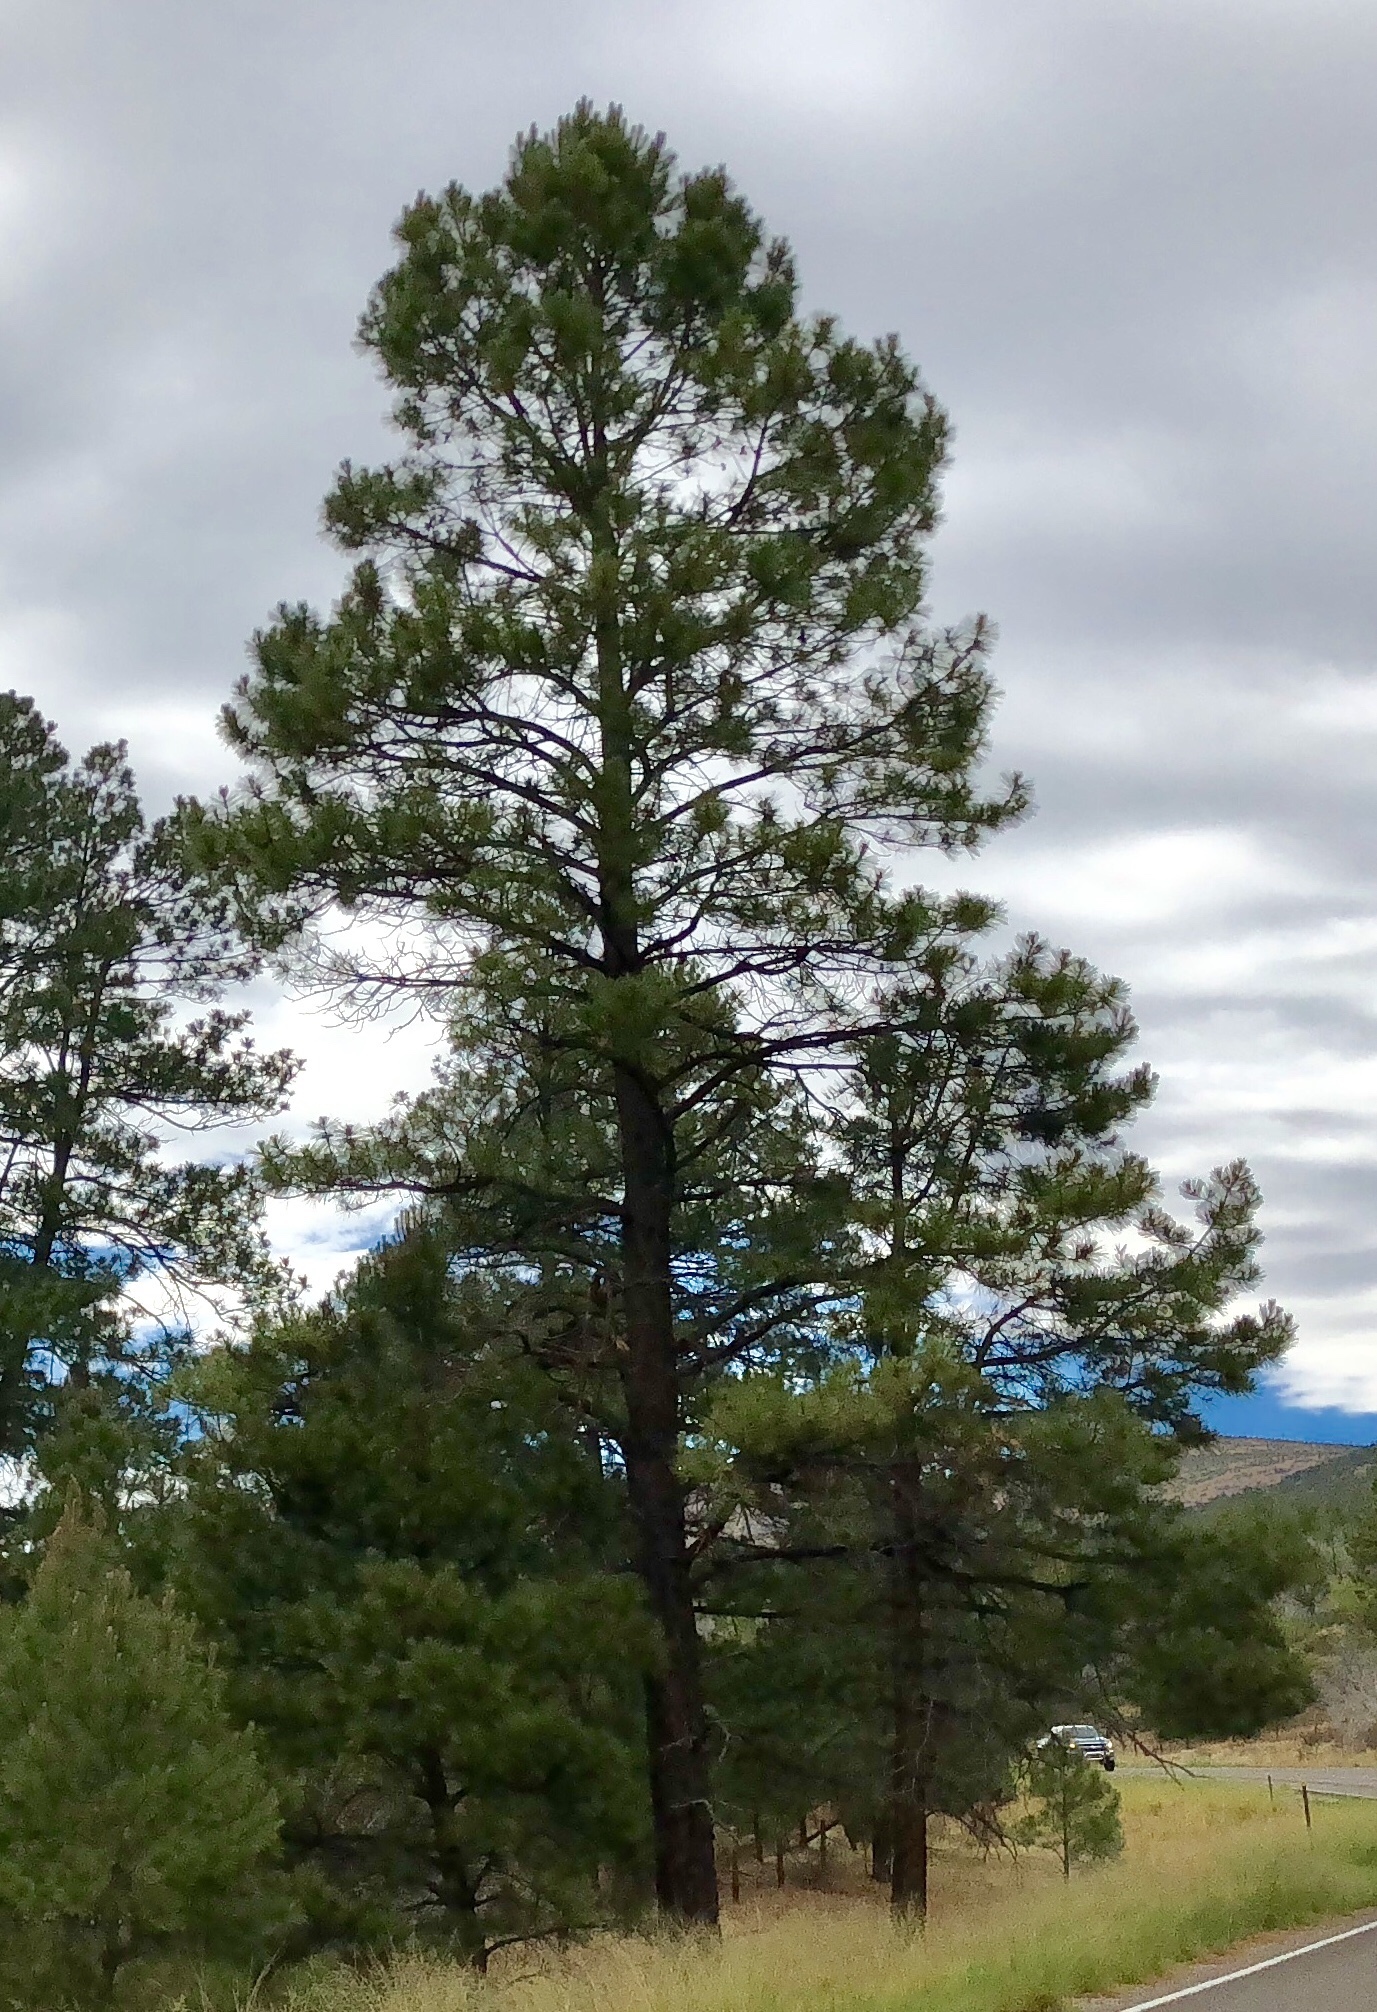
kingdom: Plantae
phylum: Tracheophyta
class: Pinopsida
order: Pinales
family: Pinaceae
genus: Pinus
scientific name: Pinus ponderosa
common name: Western yellow-pine
